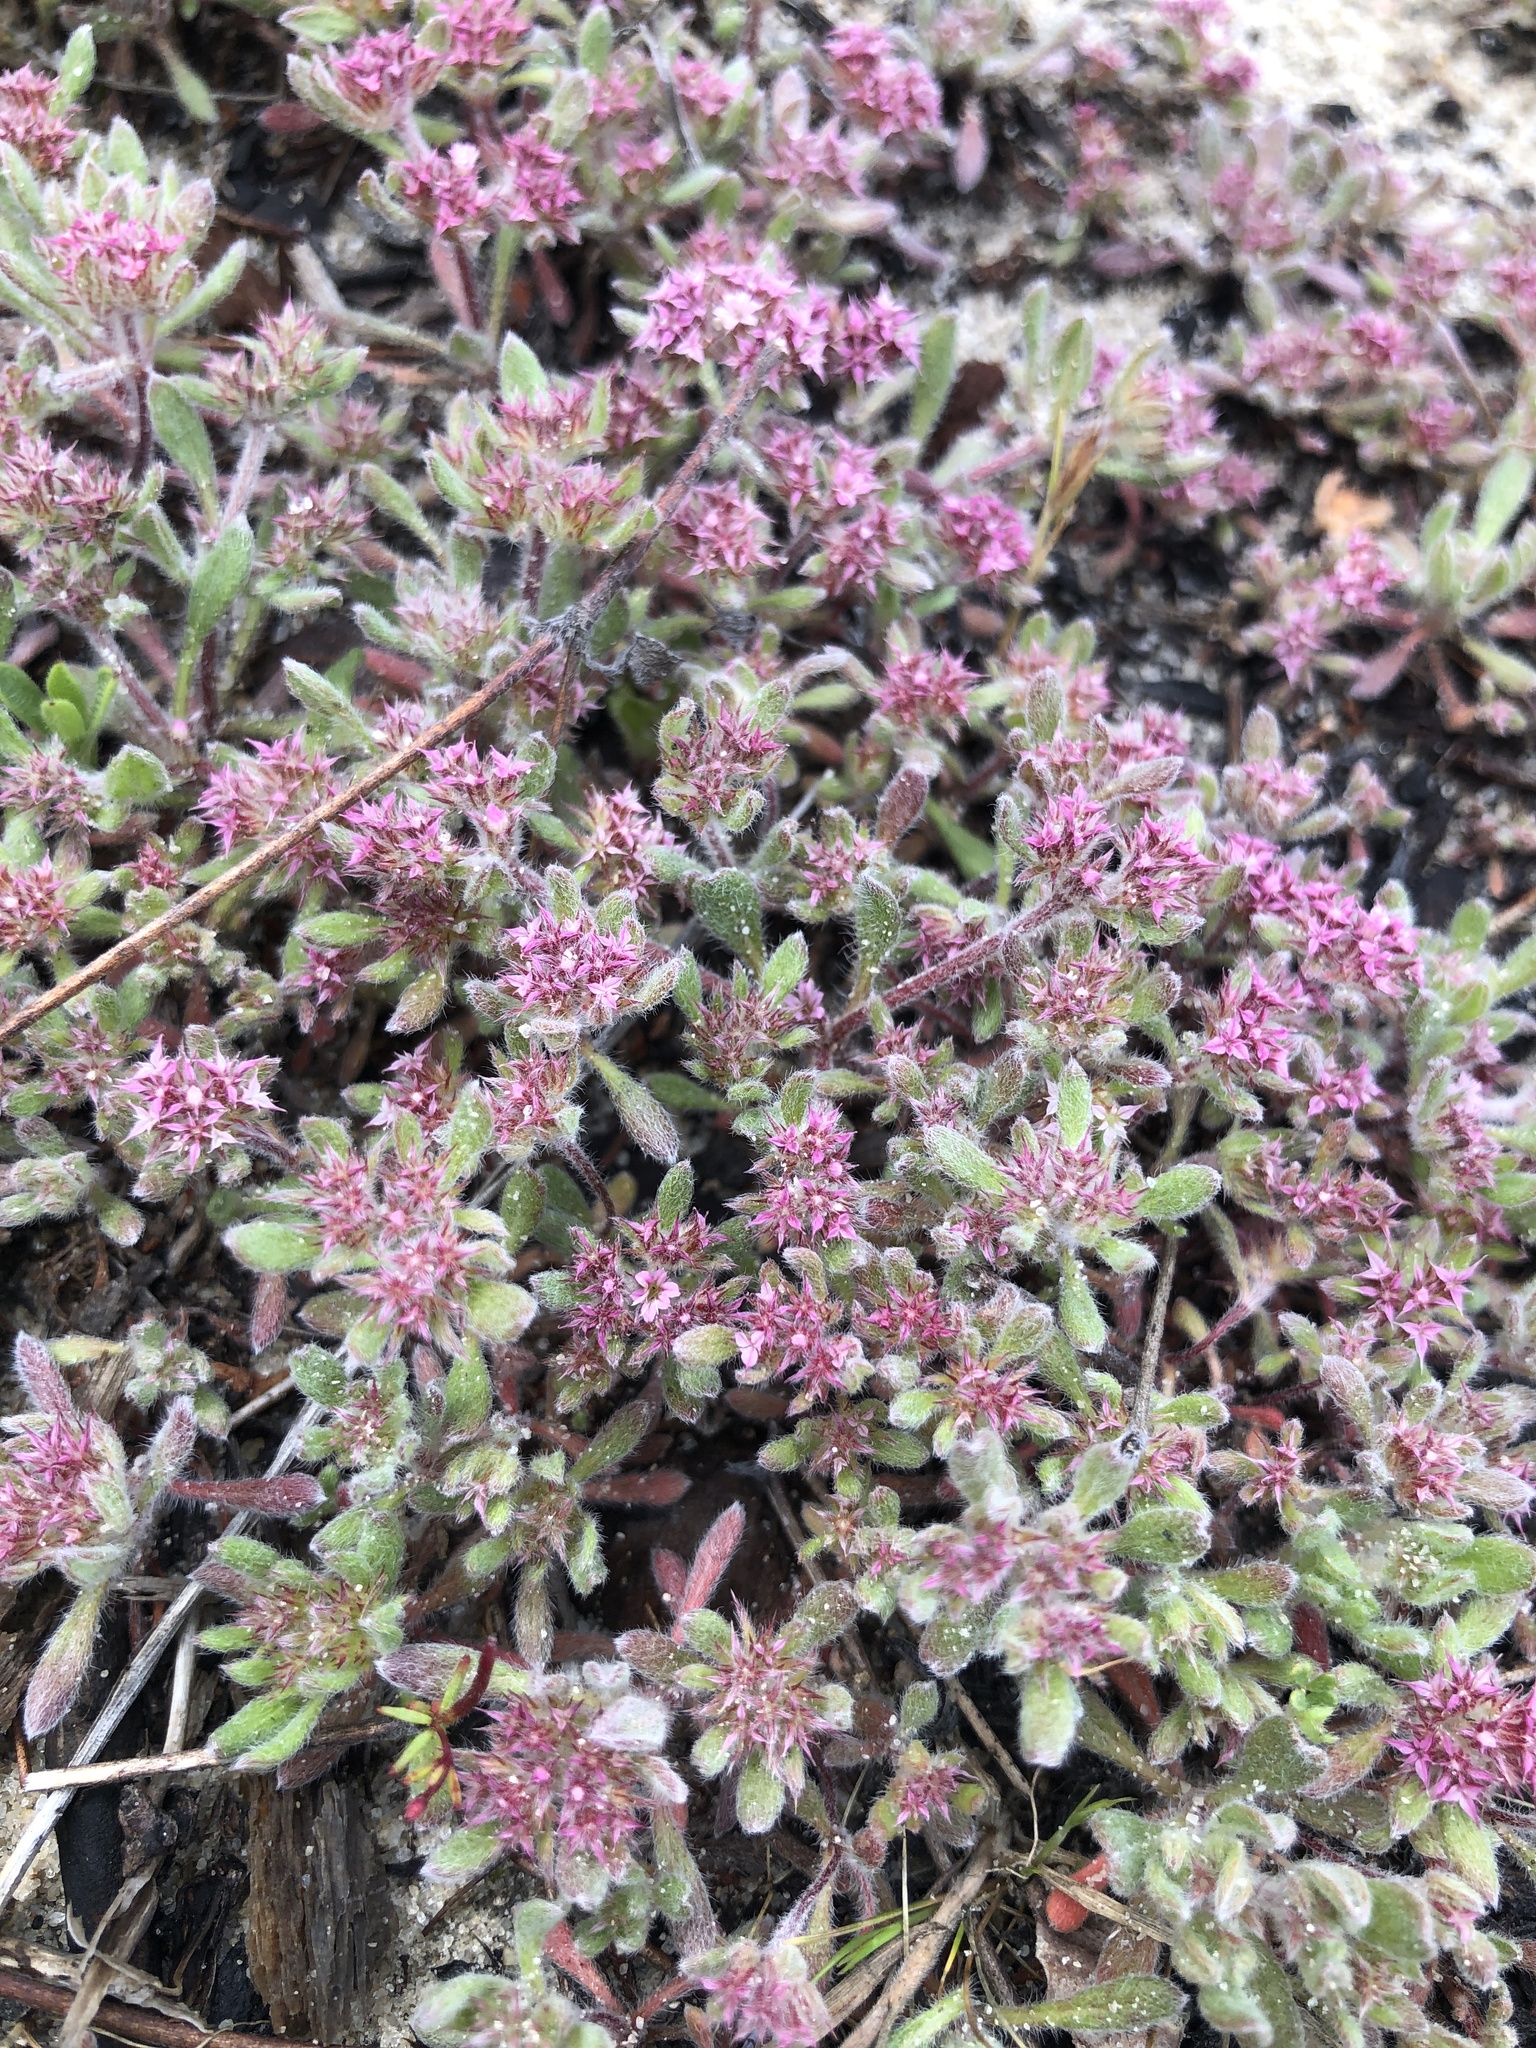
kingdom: Plantae
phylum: Tracheophyta
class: Magnoliopsida
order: Caryophyllales
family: Polygonaceae
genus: Chorizanthe
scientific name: Chorizanthe pungens
